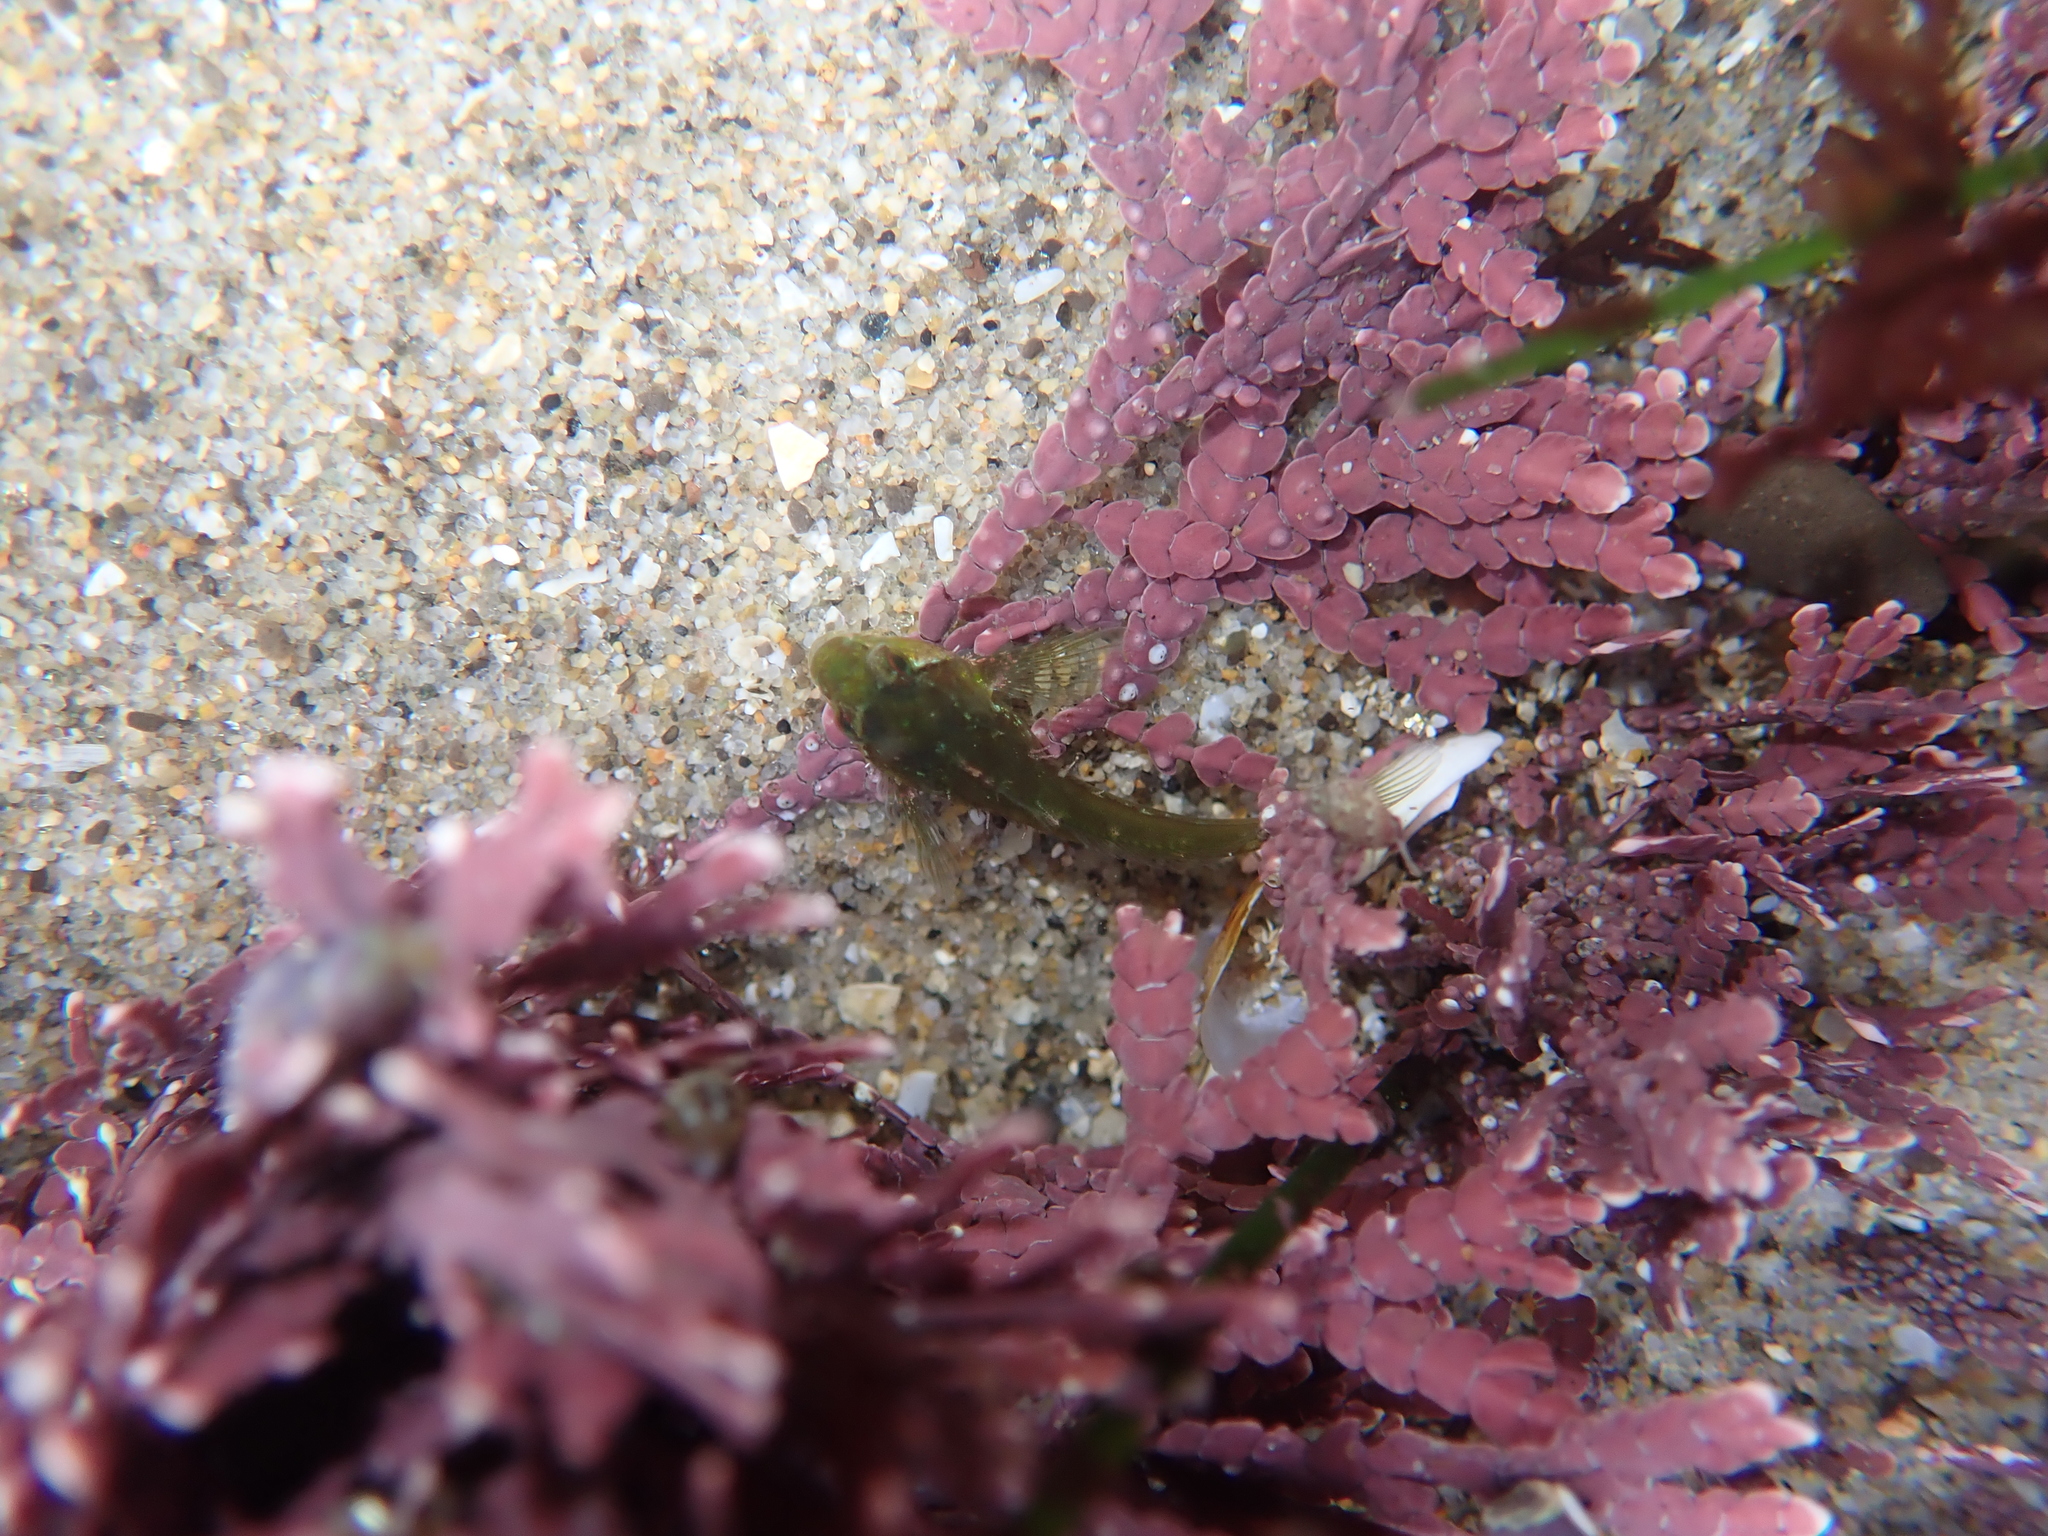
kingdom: Animalia
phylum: Chordata
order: Scorpaeniformes
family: Cottidae
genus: Oligocottus
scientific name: Oligocottus snyderi
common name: Fluffy sculpin
